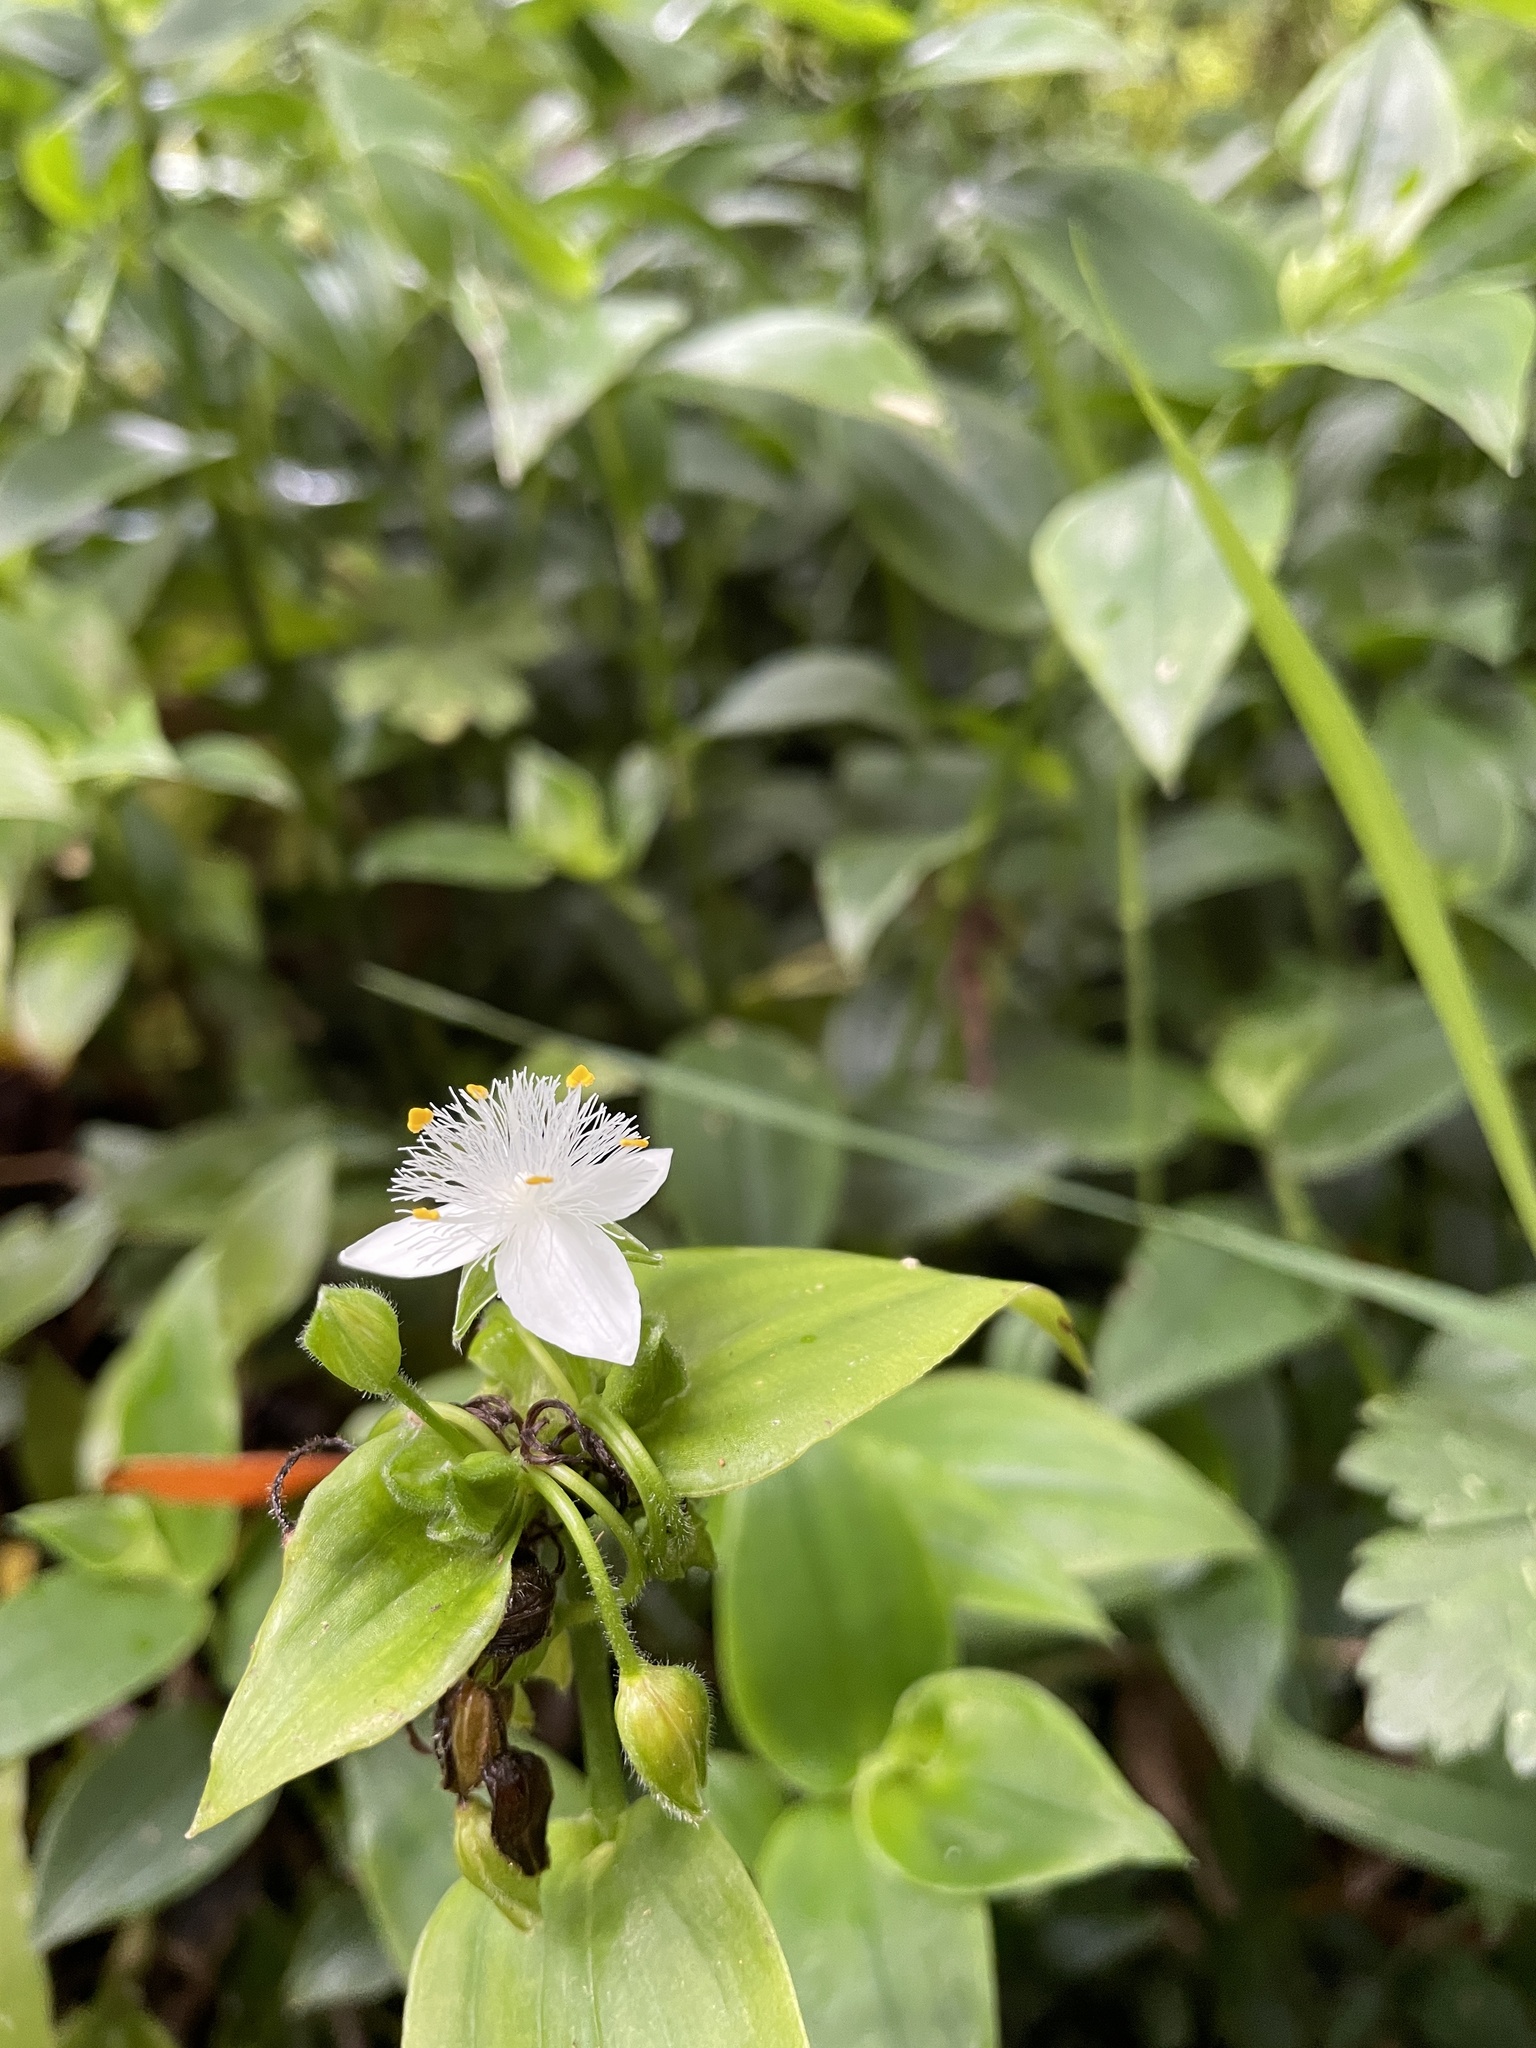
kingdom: Plantae
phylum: Tracheophyta
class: Liliopsida
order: Commelinales
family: Commelinaceae
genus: Tradescantia
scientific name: Tradescantia fluminensis
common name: Wandering-jew
